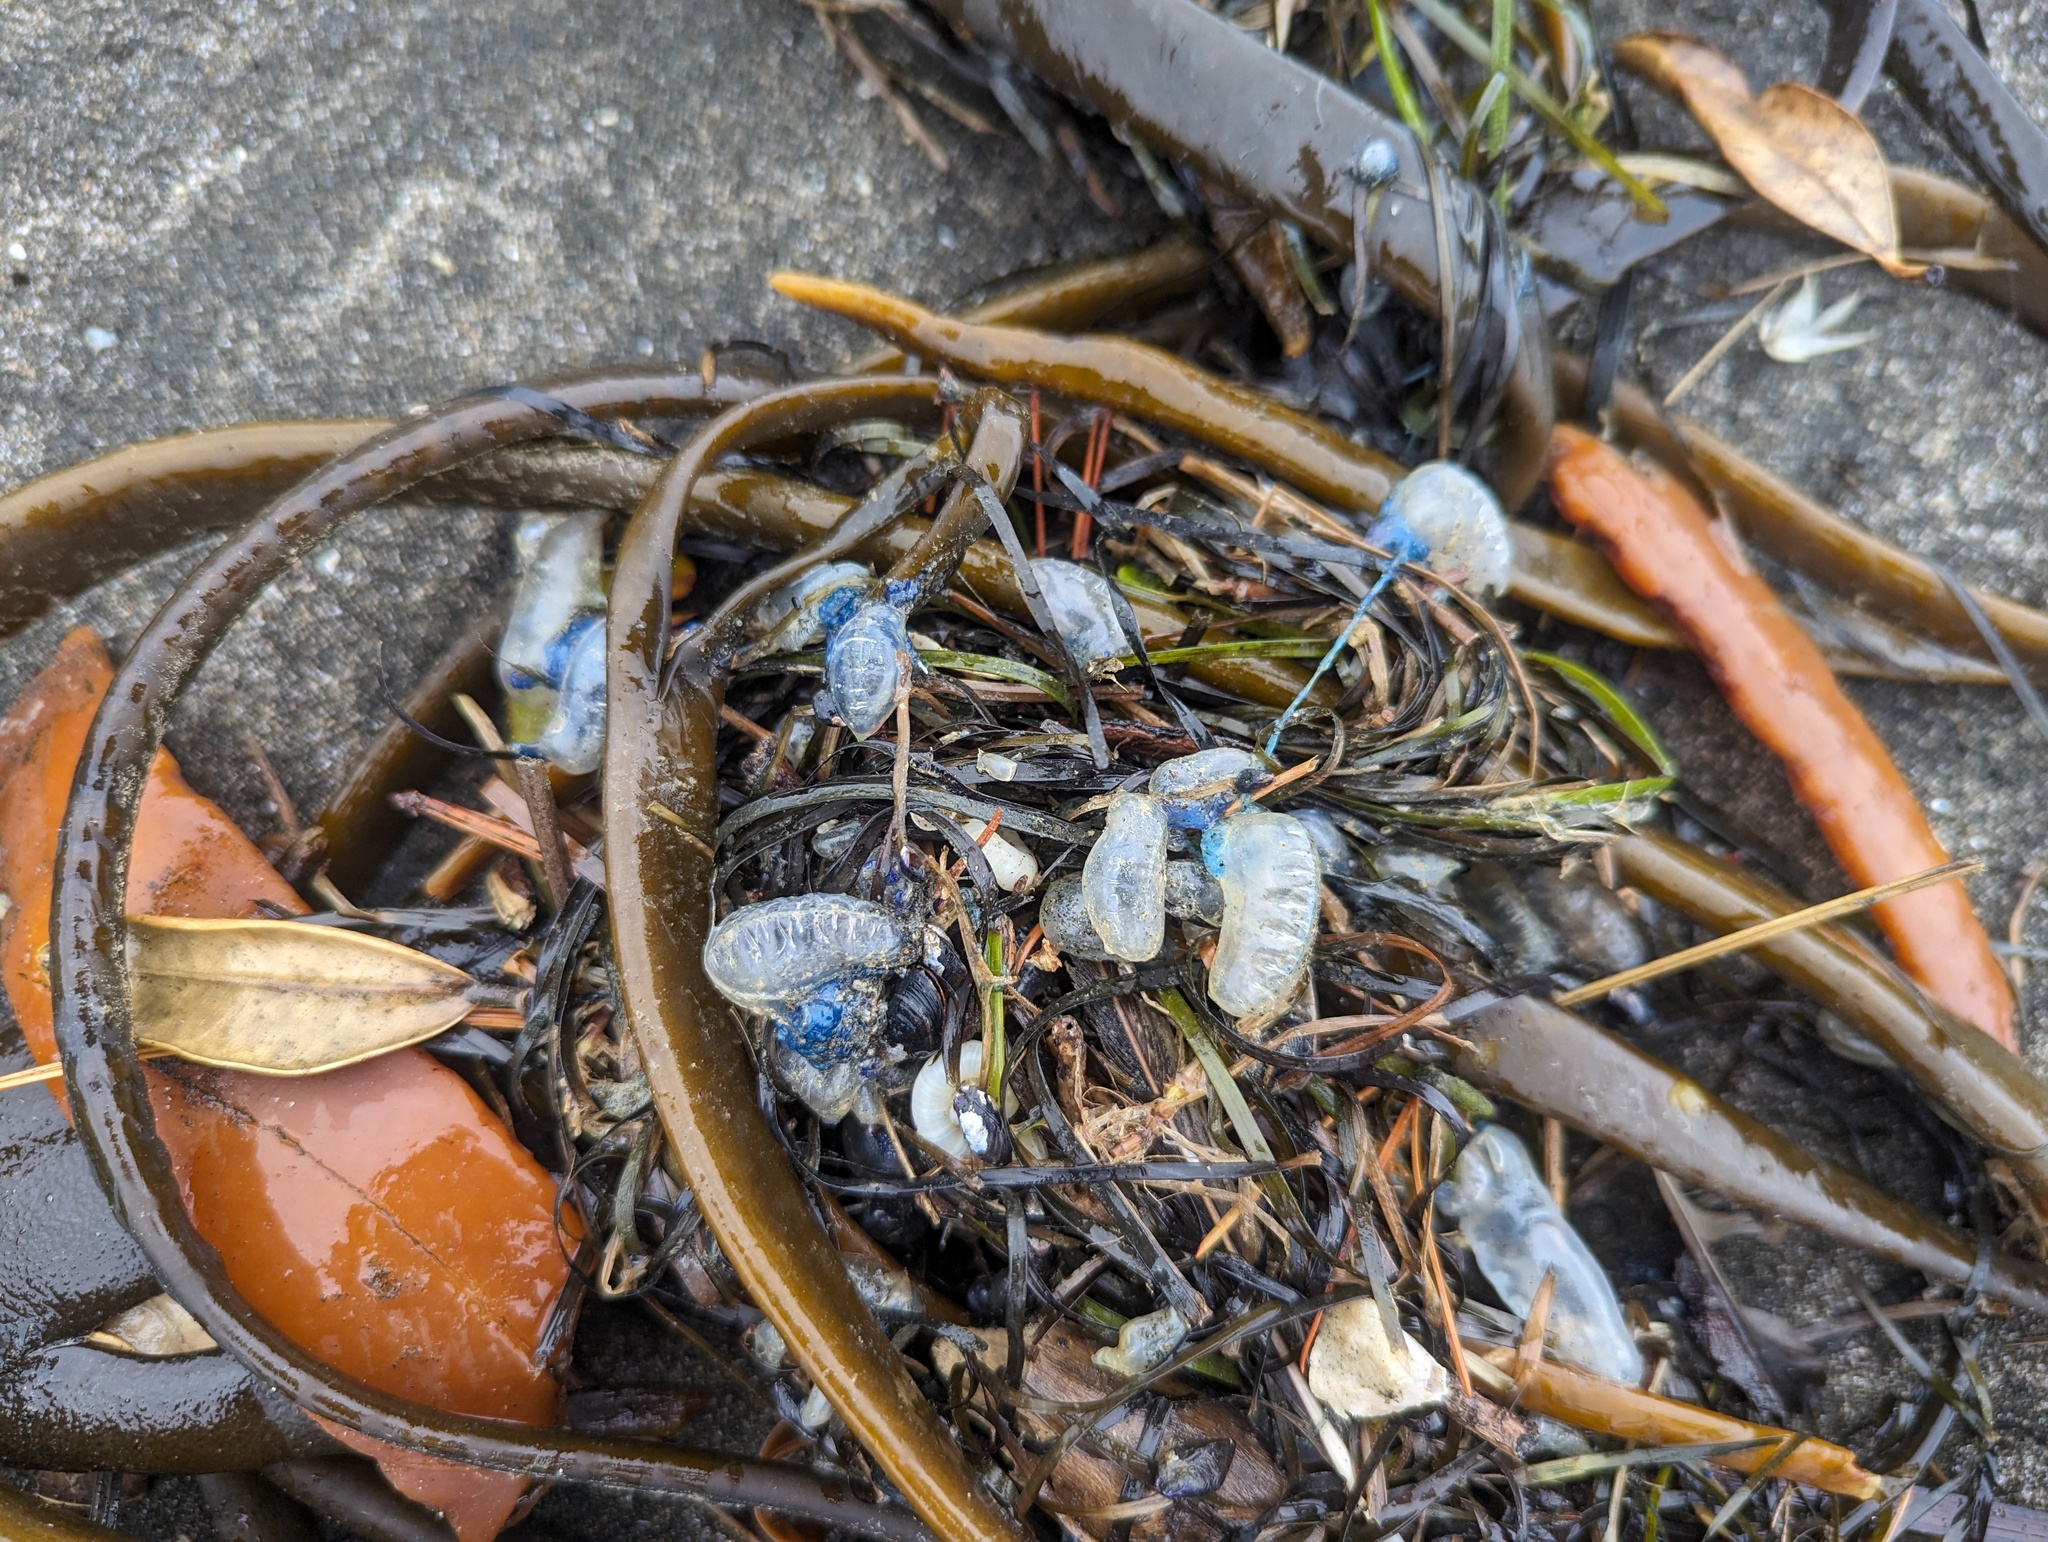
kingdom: Animalia
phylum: Cnidaria
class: Hydrozoa
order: Siphonophorae
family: Physaliidae
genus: Physalia
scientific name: Physalia physalis
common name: Portuguese man-of-war
